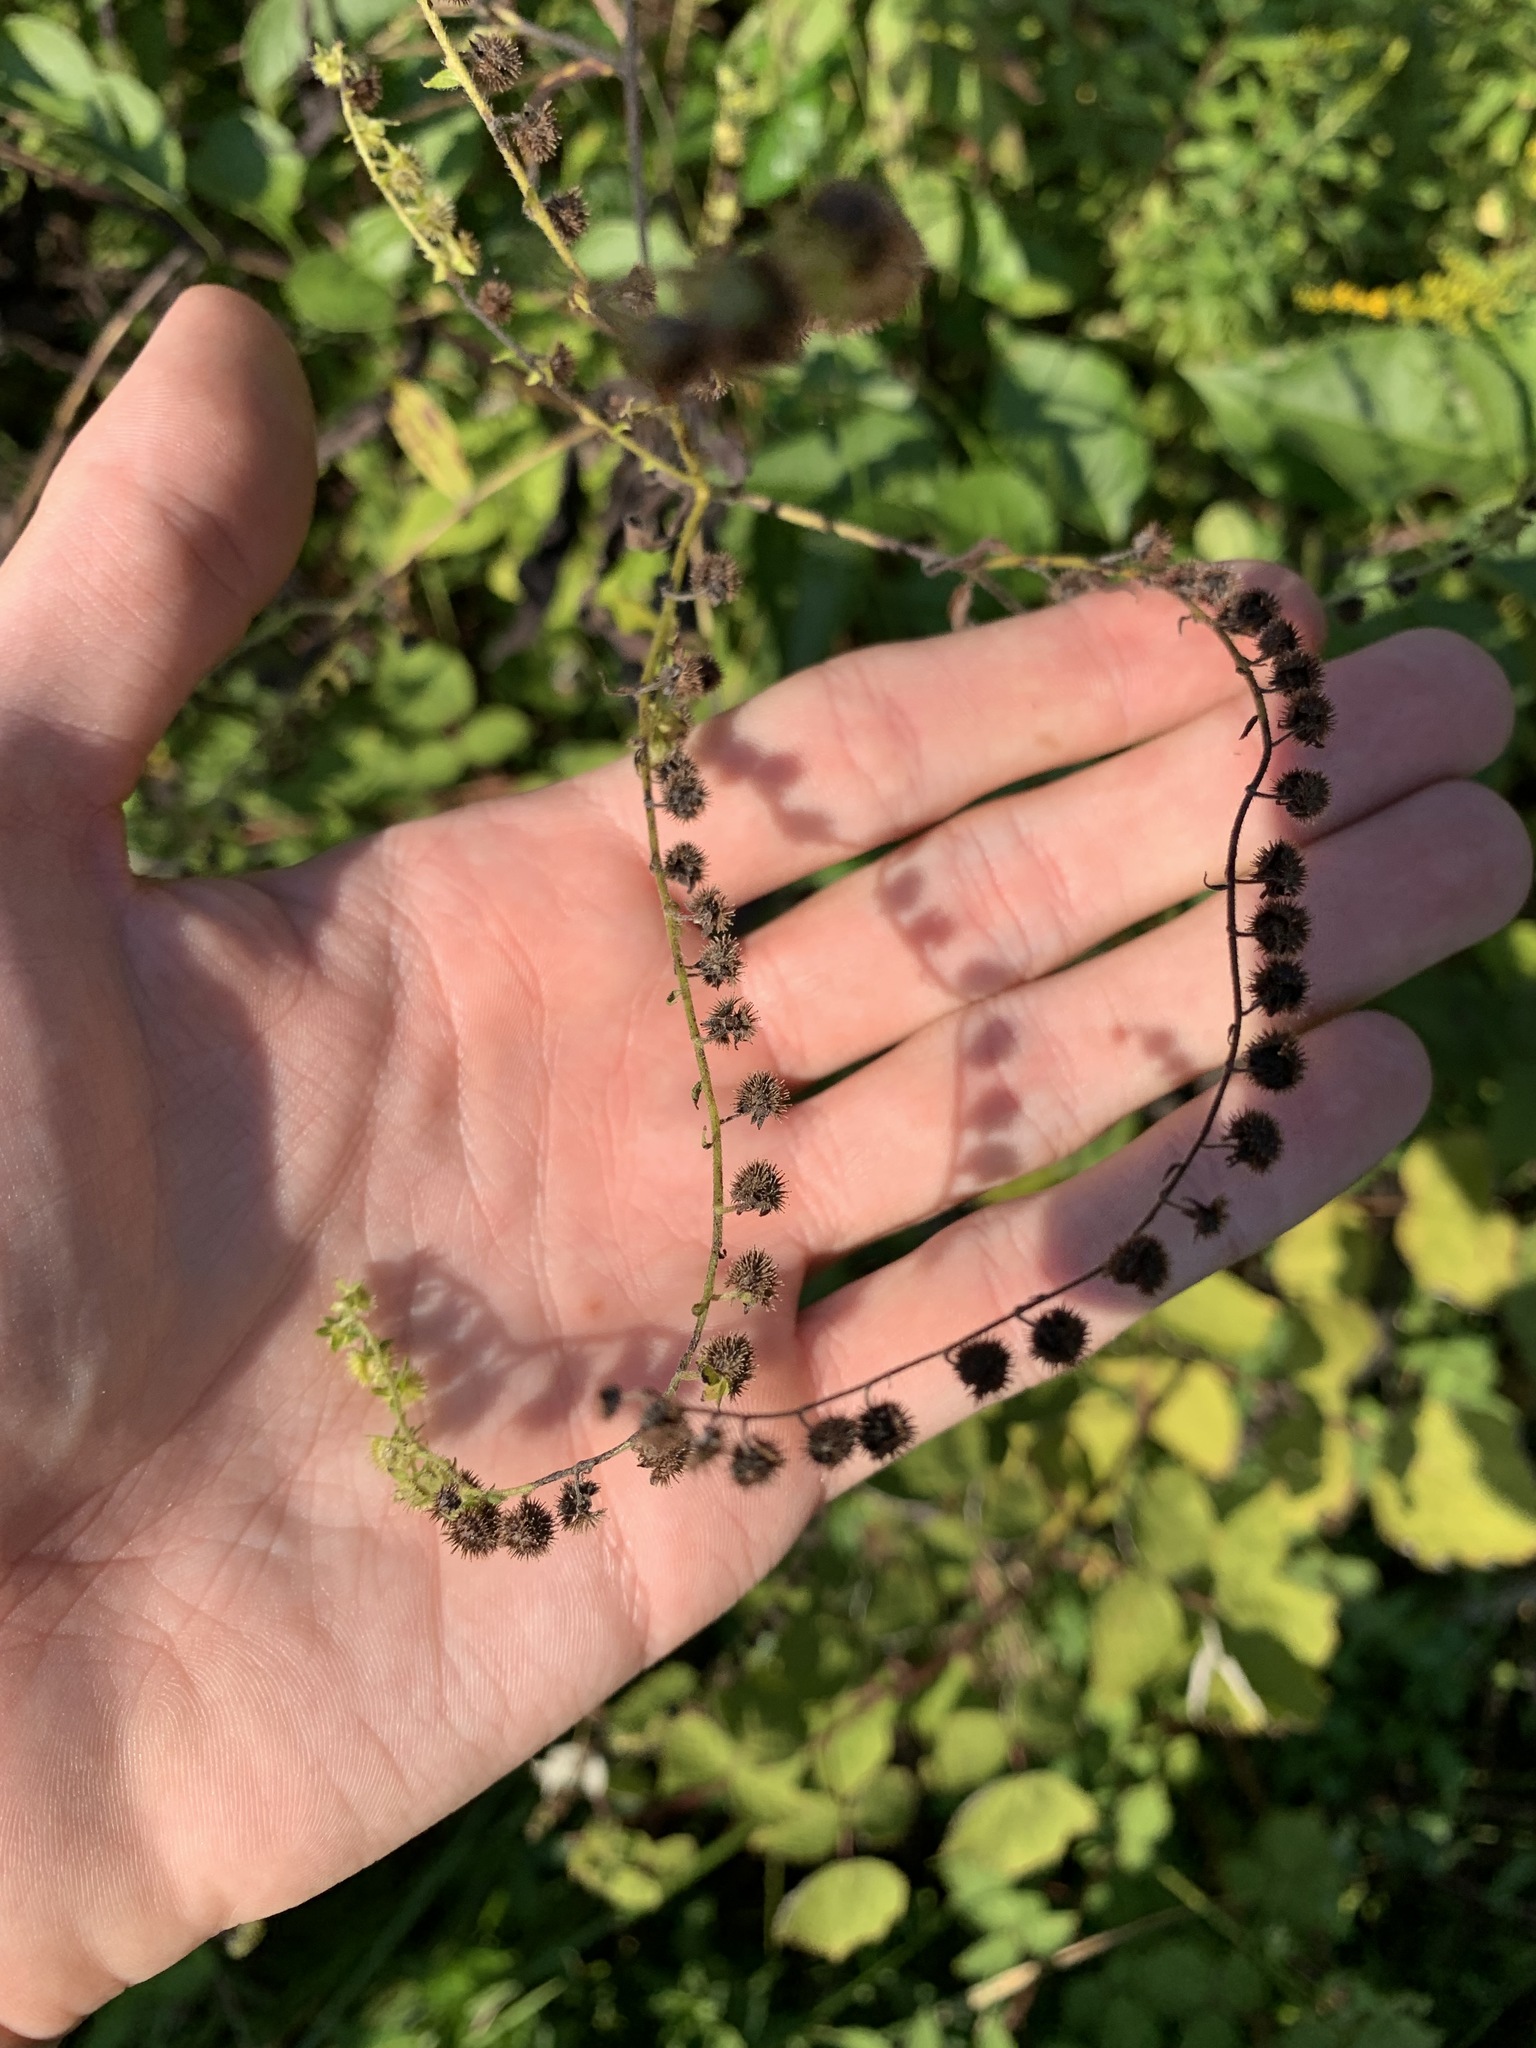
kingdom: Plantae
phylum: Tracheophyta
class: Magnoliopsida
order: Boraginales
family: Boraginaceae
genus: Hackelia
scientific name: Hackelia virginiana
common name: Beggar's-lice
